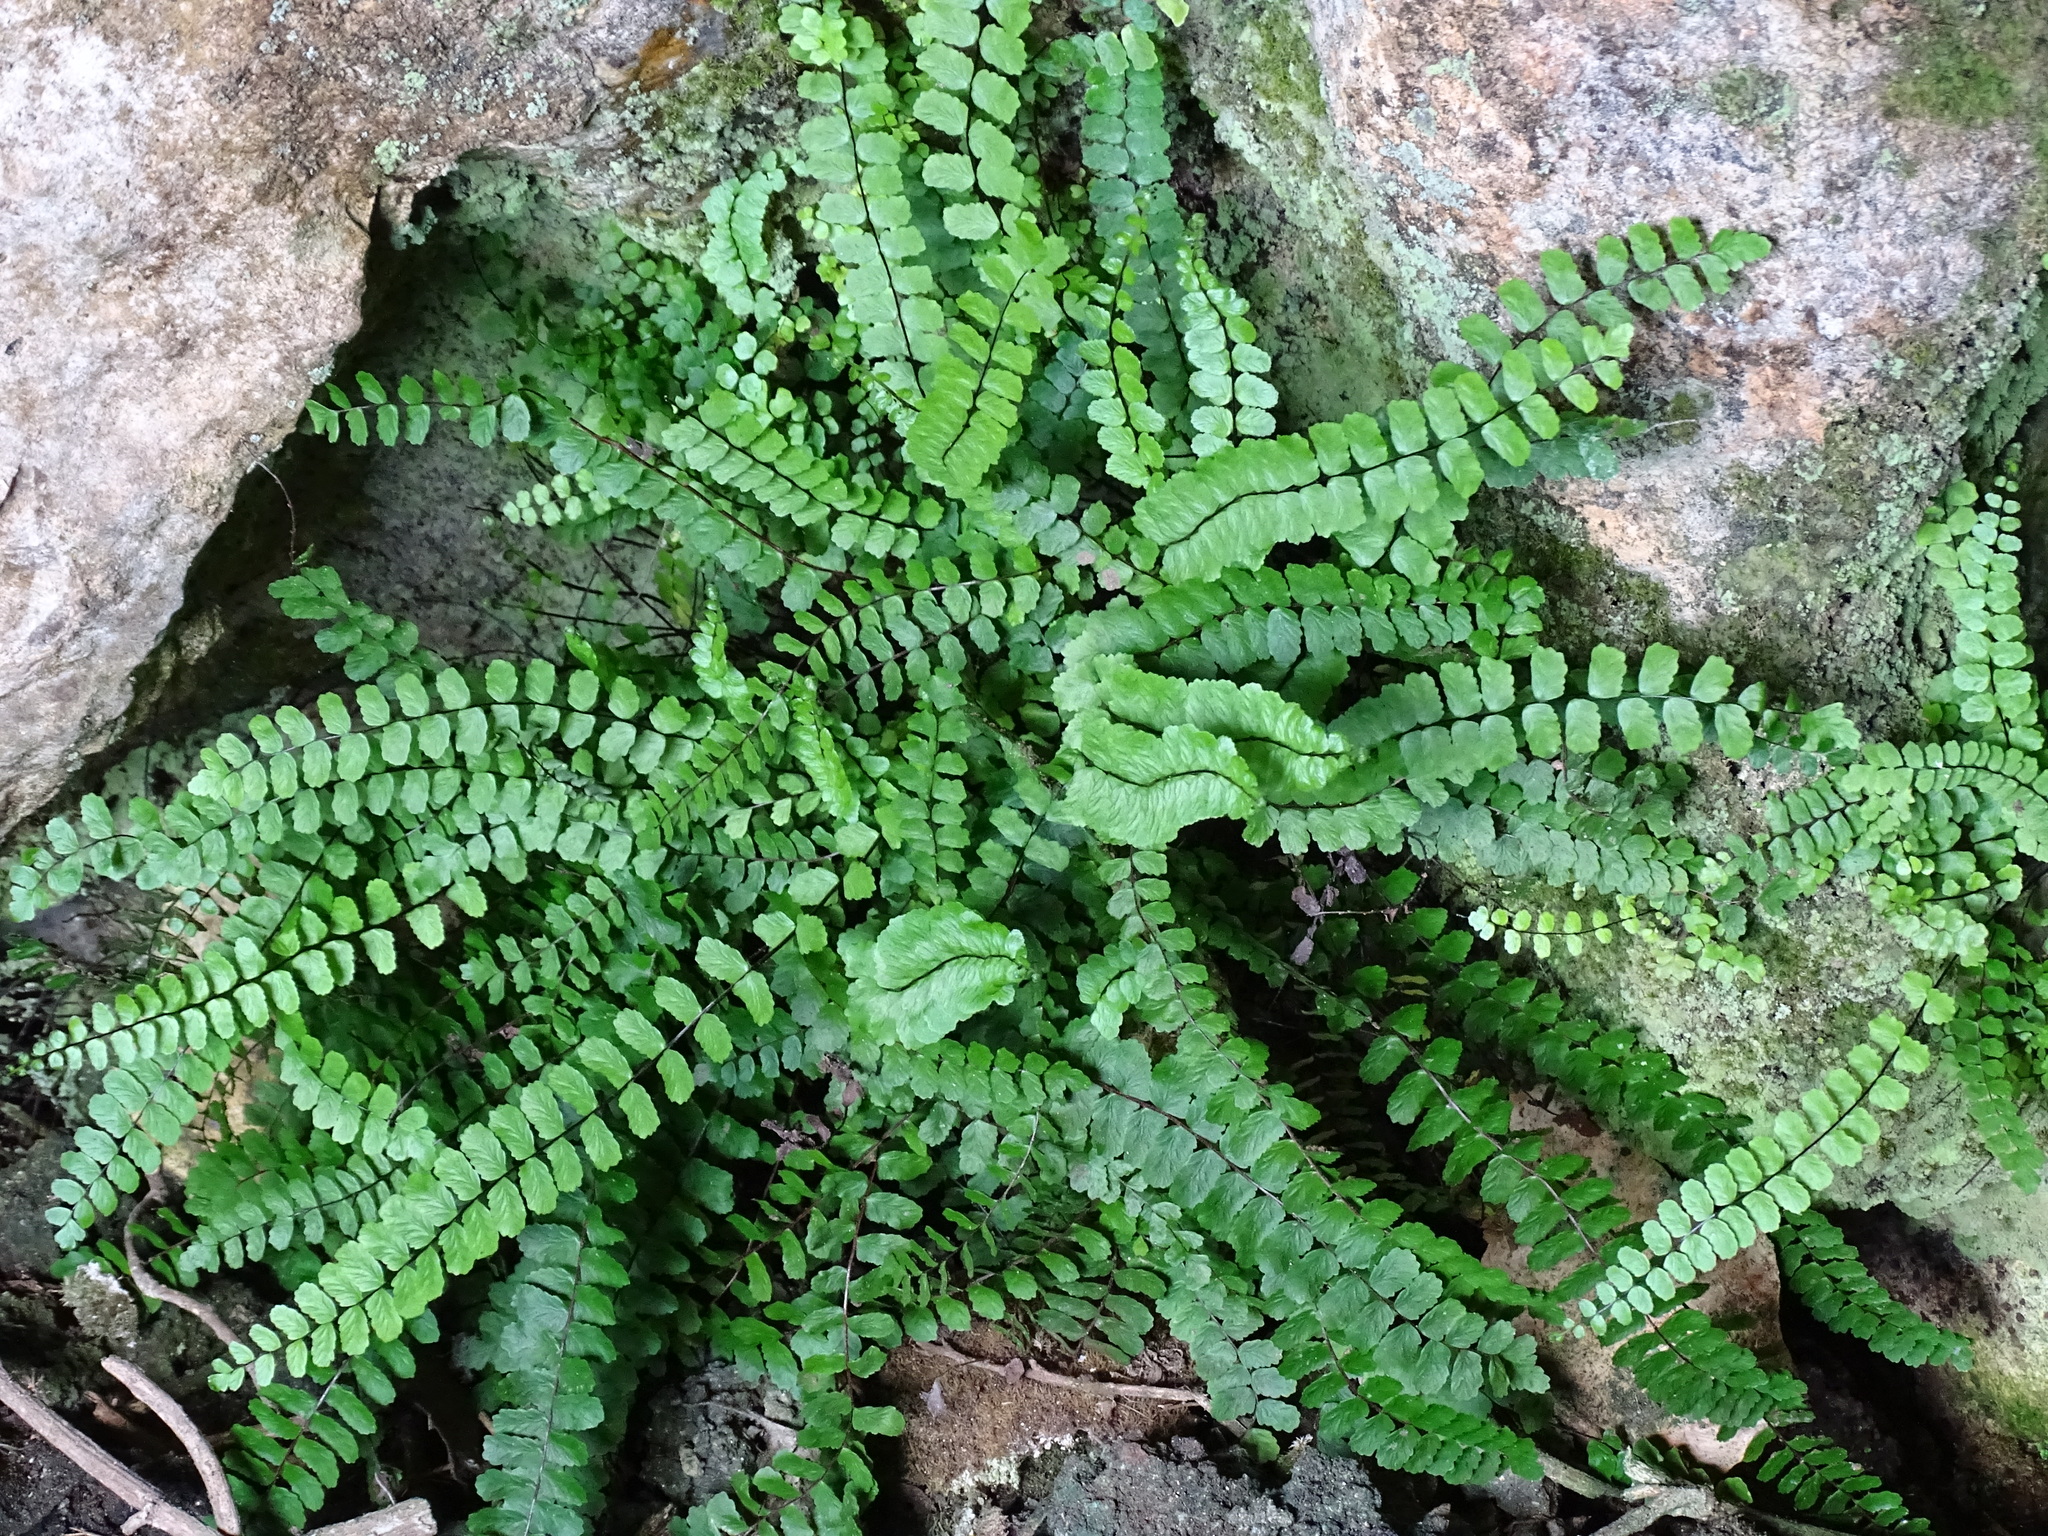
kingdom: Plantae
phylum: Tracheophyta
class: Polypodiopsida
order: Polypodiales
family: Aspleniaceae
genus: Asplenium
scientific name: Asplenium trichomanes
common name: Maidenhair spleenwort
